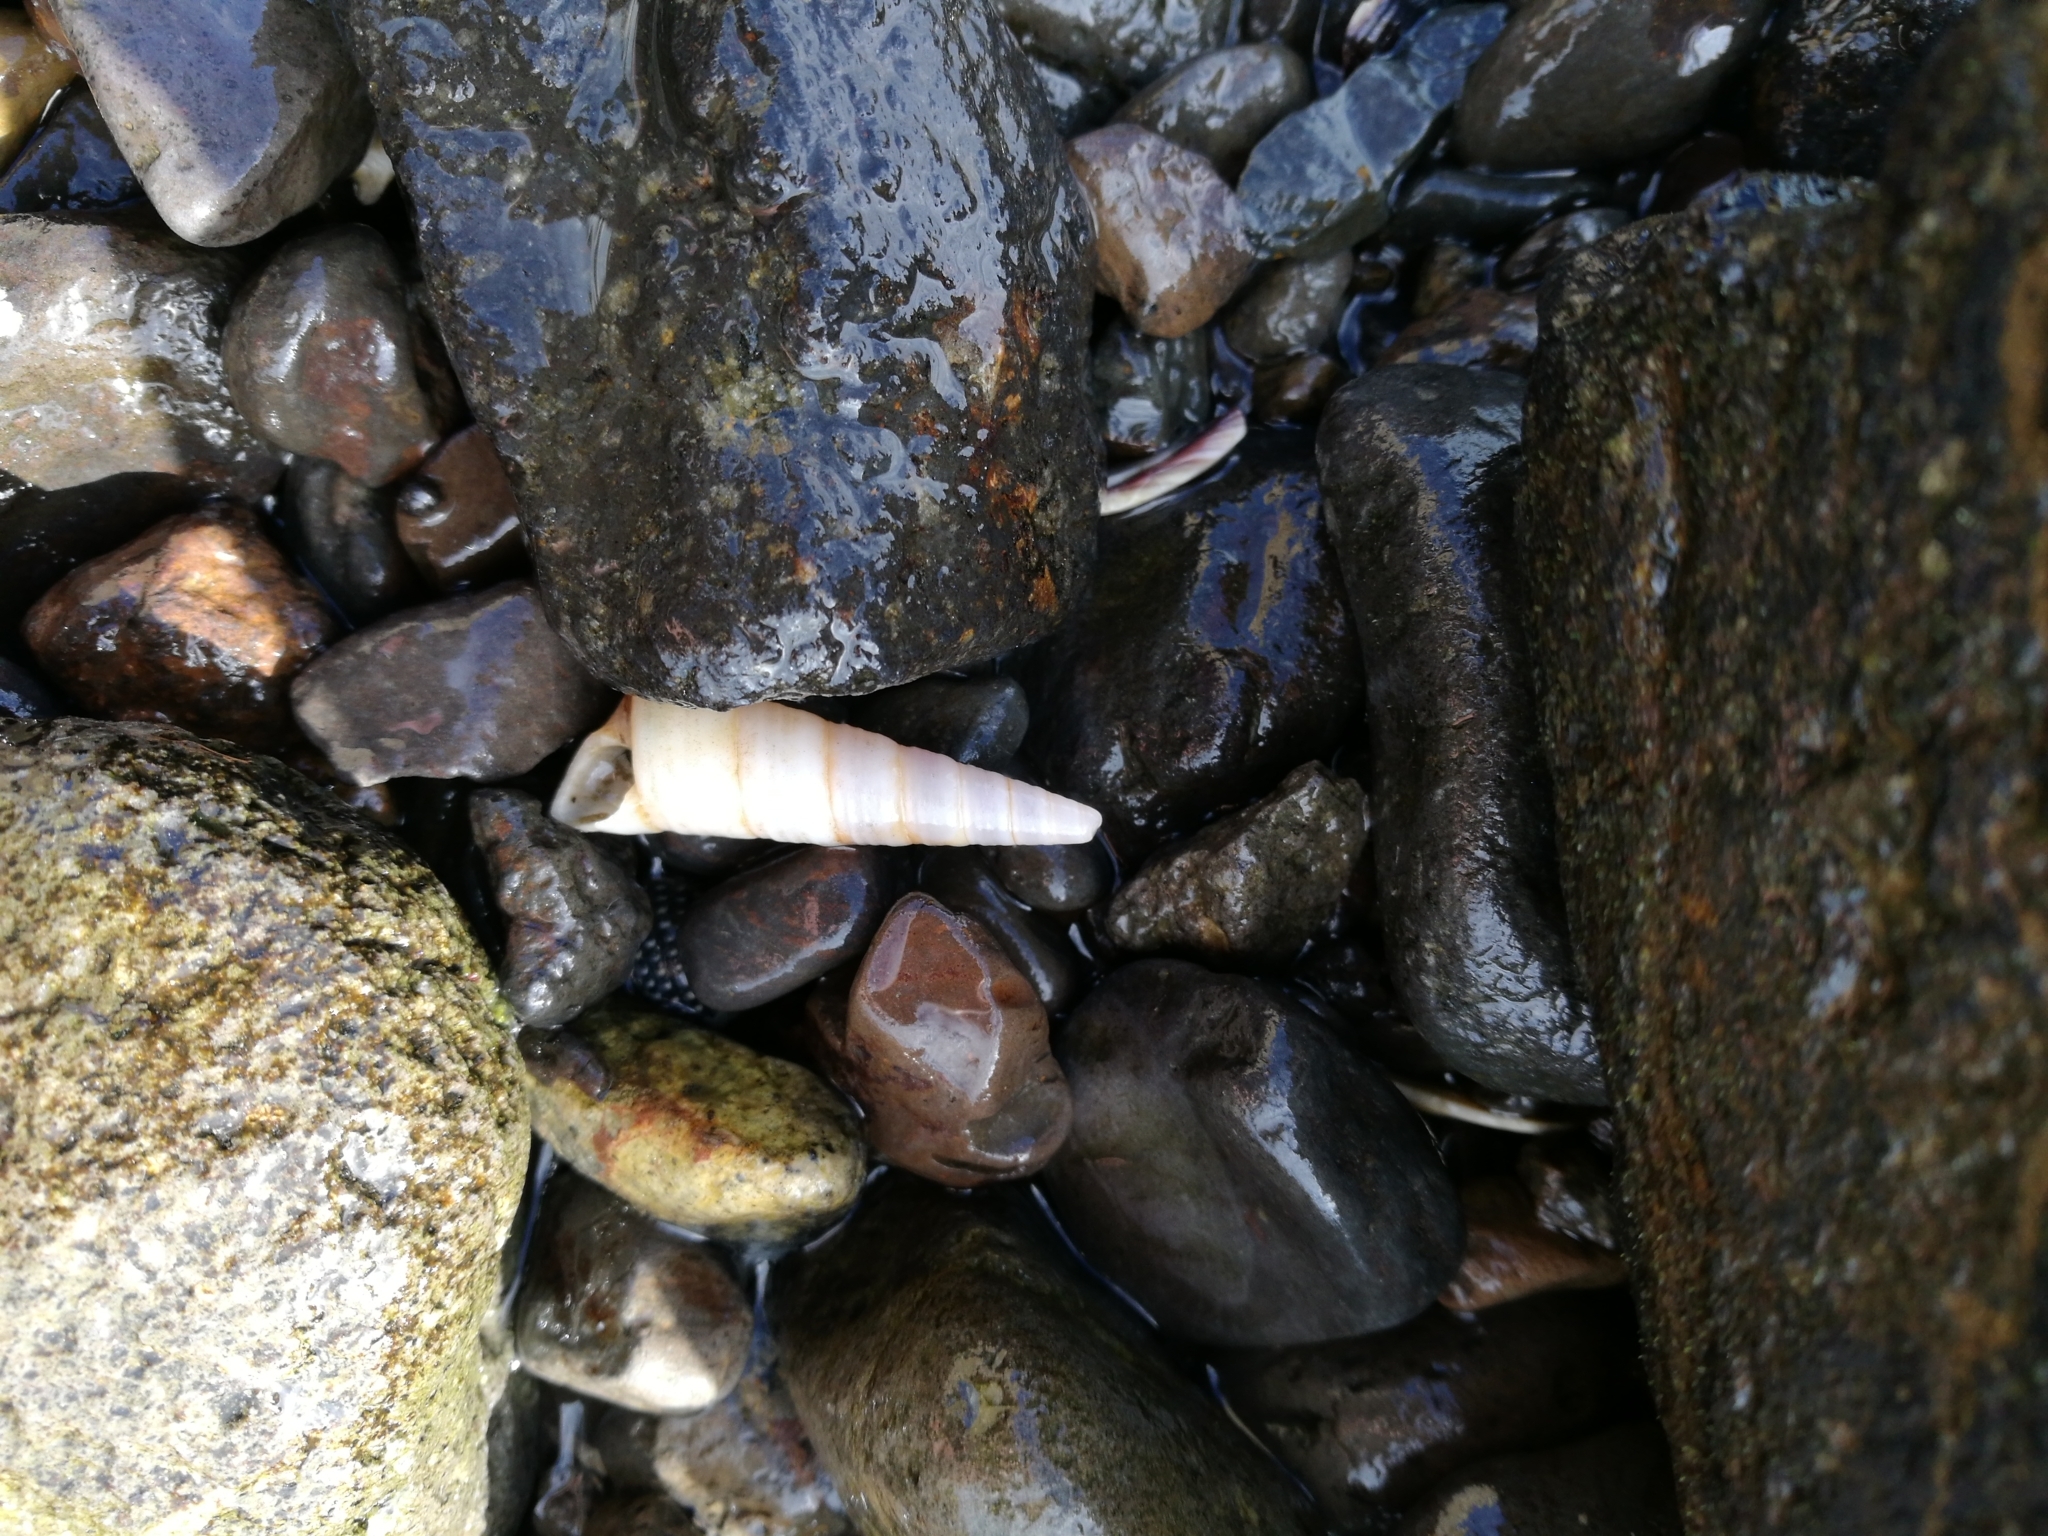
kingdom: Animalia
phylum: Mollusca
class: Gastropoda
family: Turritellidae
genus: Maoricolpus
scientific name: Maoricolpus roseus
